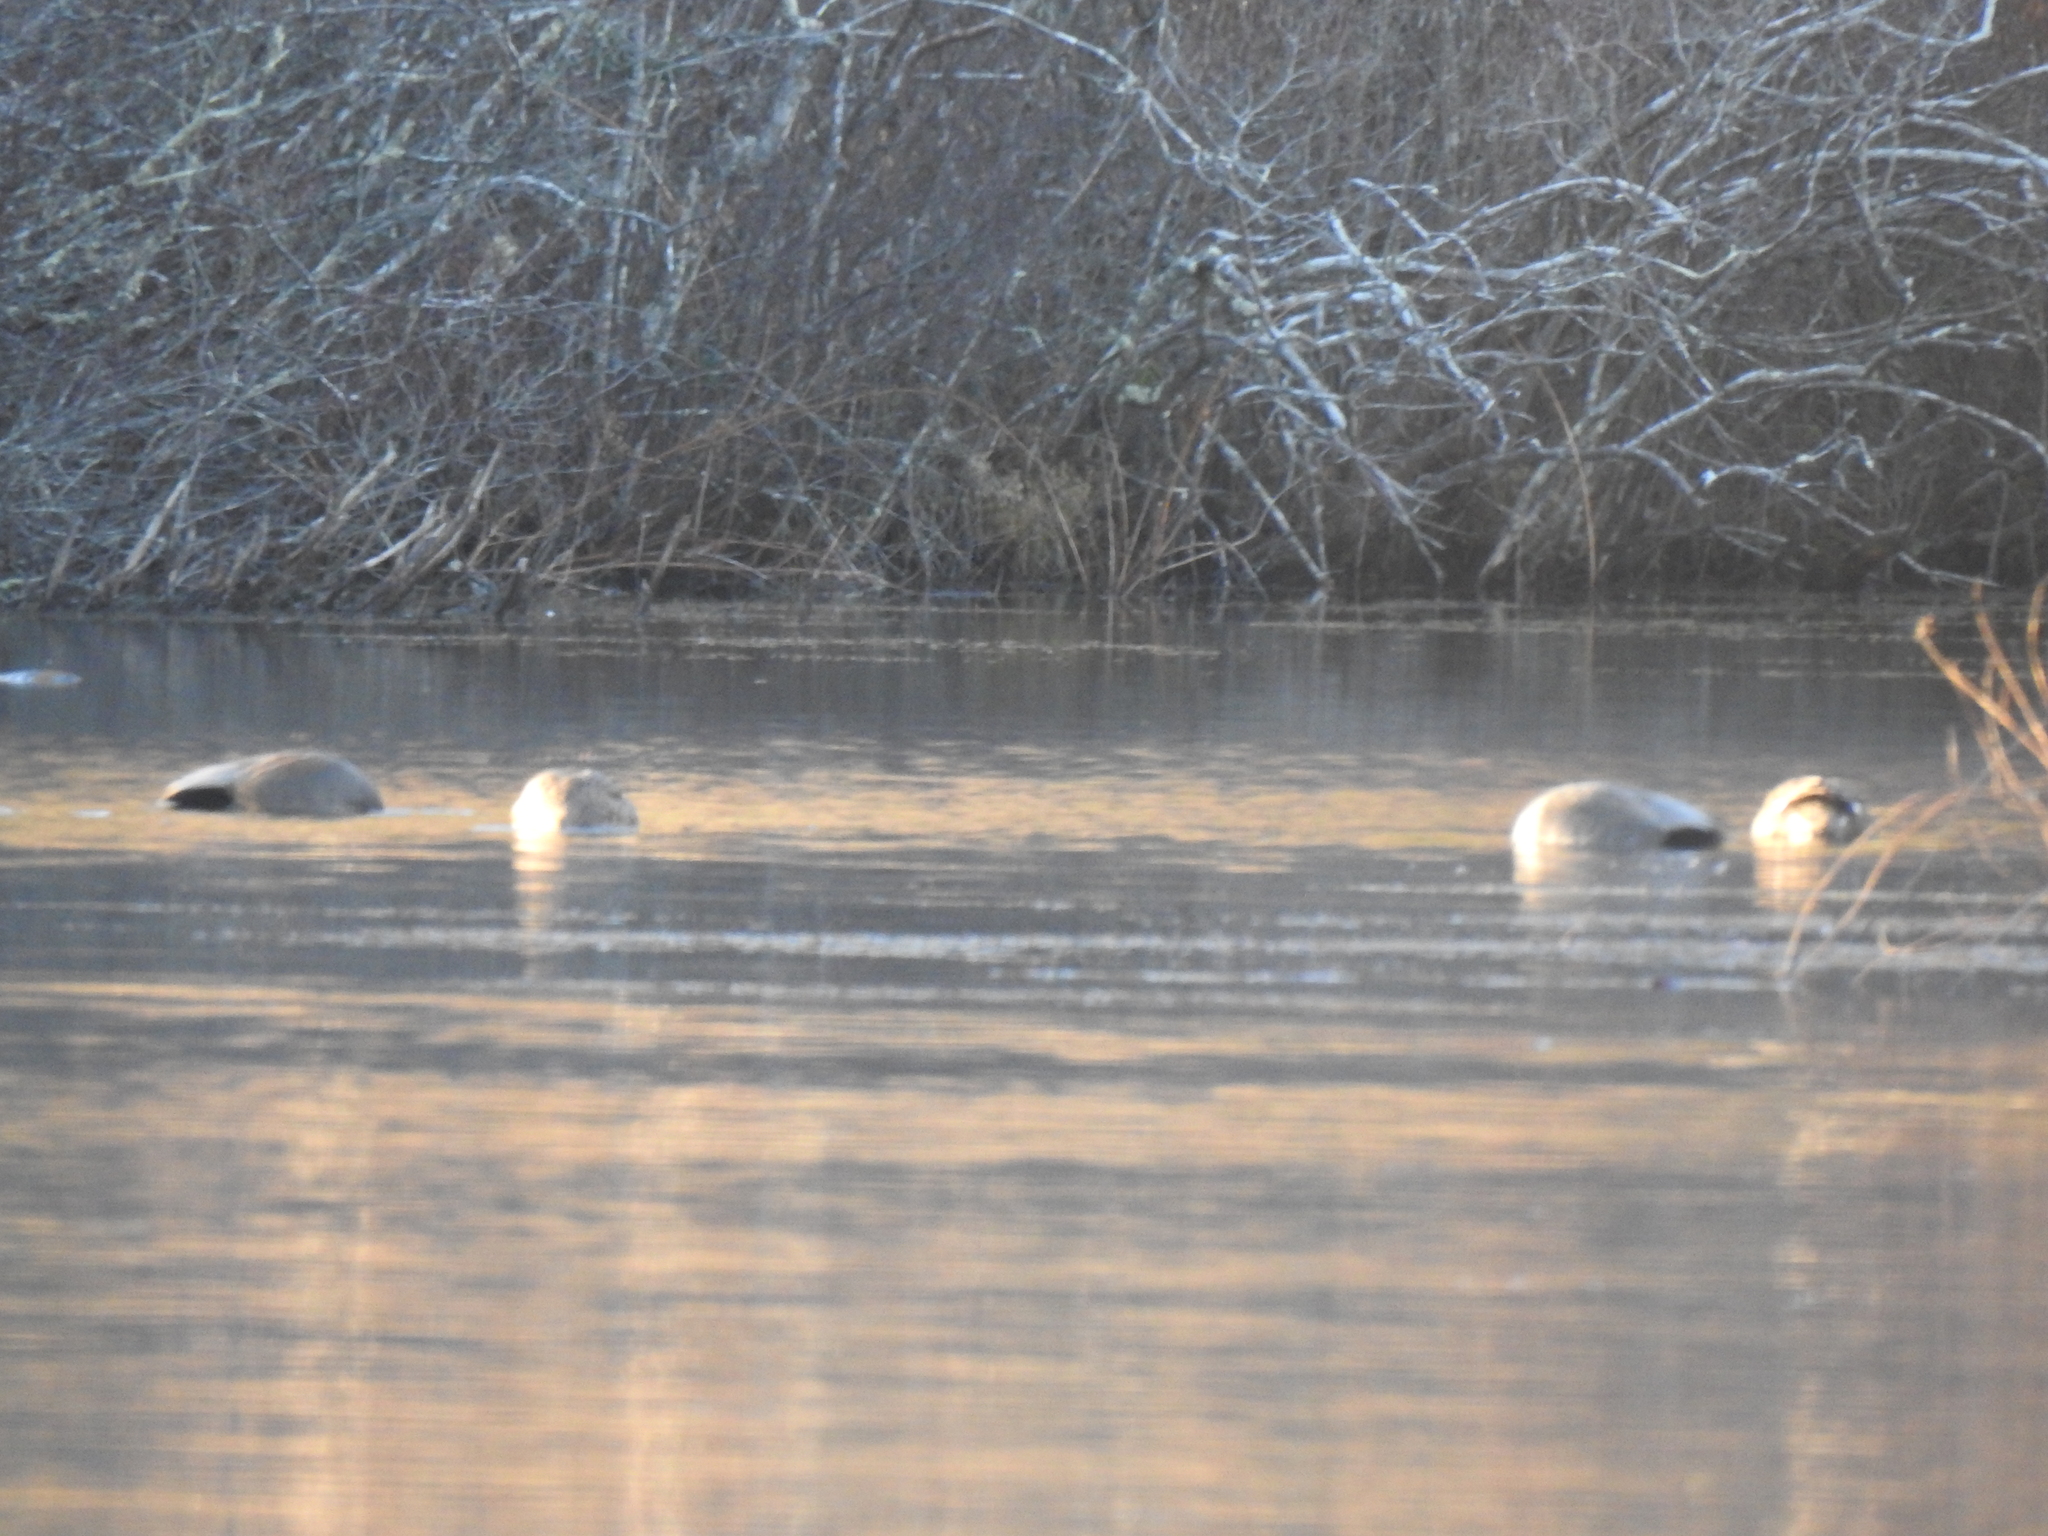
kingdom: Animalia
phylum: Chordata
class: Aves
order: Anseriformes
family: Anatidae
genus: Mareca
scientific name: Mareca strepera
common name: Gadwall
